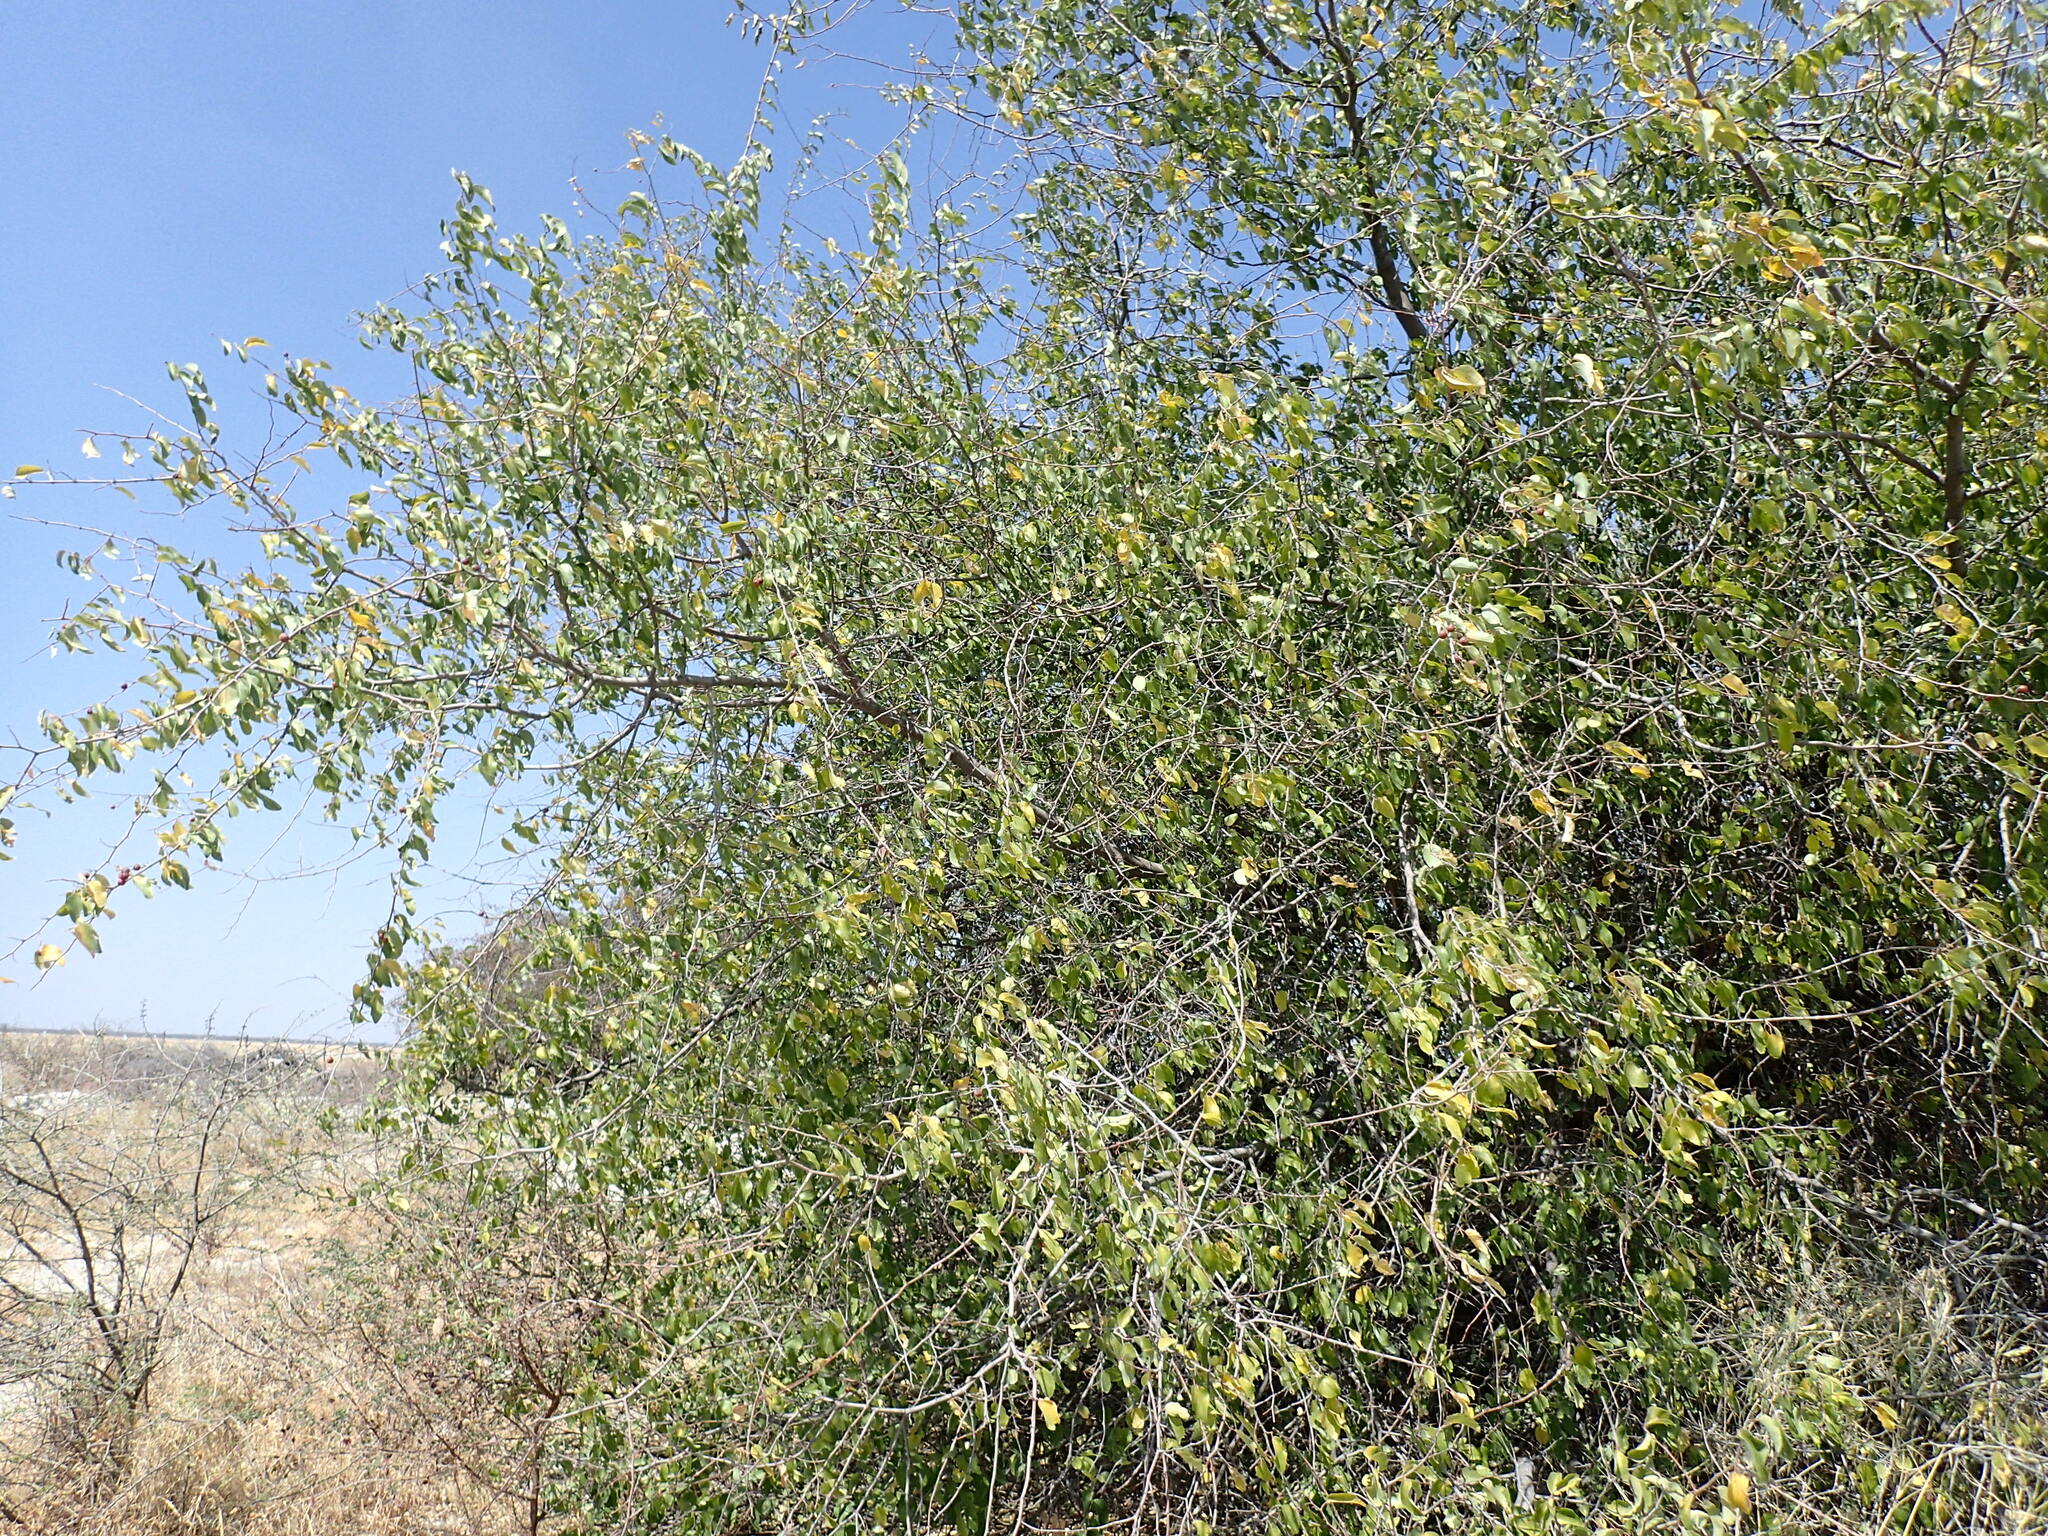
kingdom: Plantae
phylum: Tracheophyta
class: Magnoliopsida
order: Rosales
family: Rhamnaceae
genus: Ziziphus
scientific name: Ziziphus mucronata
